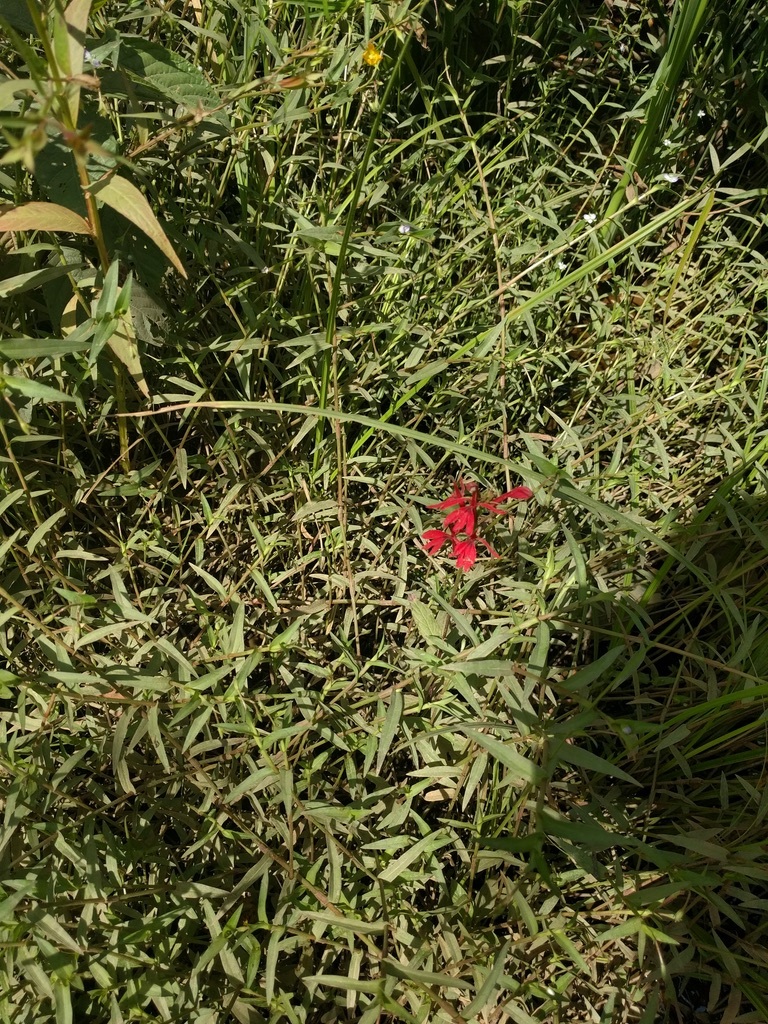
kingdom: Plantae
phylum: Tracheophyta
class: Magnoliopsida
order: Asterales
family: Campanulaceae
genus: Lobelia
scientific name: Lobelia cardinalis
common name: Cardinal flower
